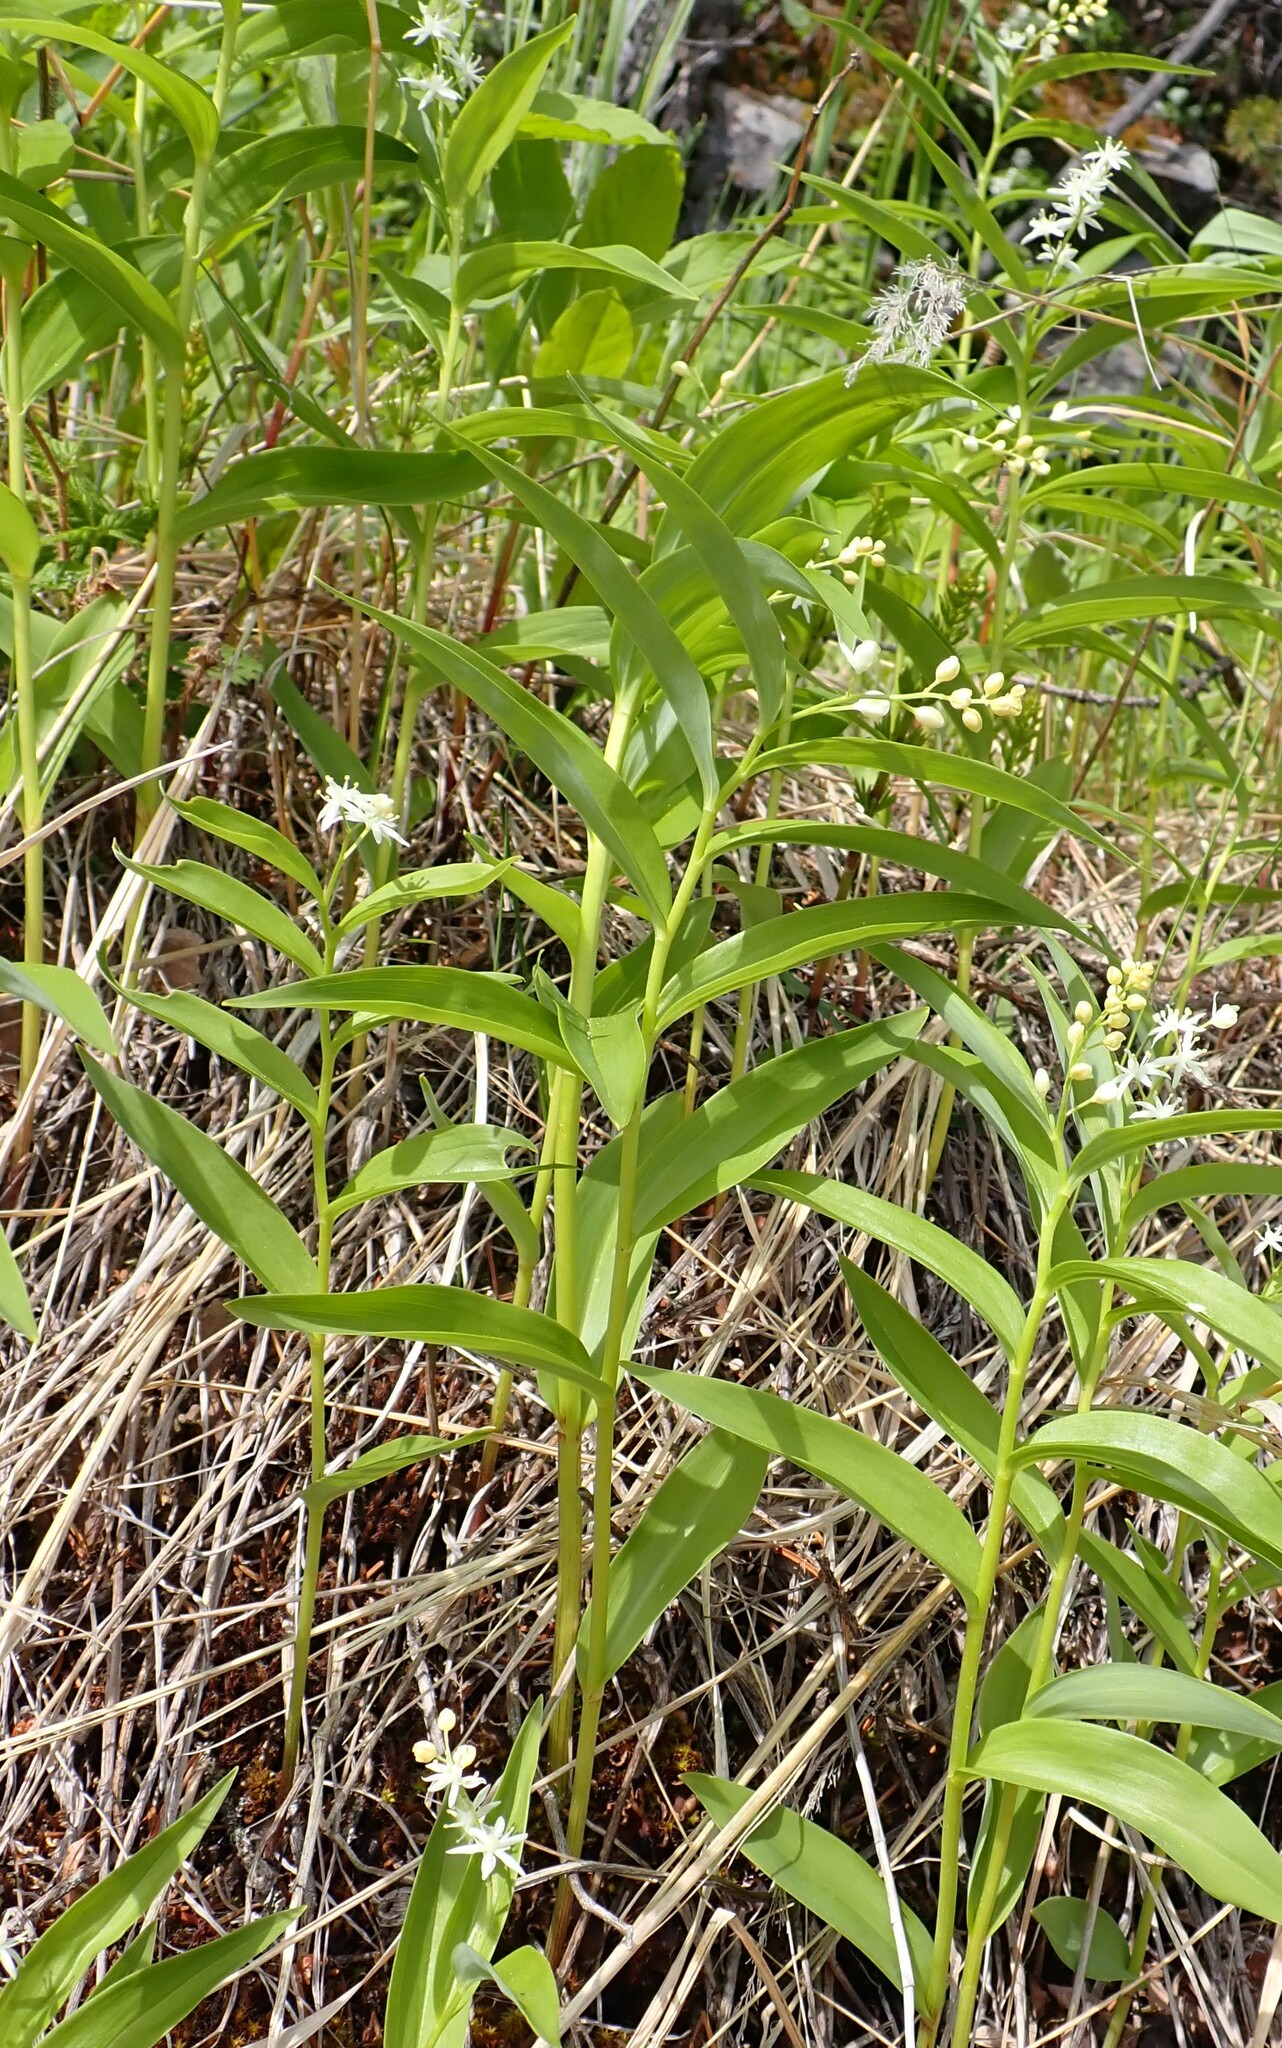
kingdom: Plantae
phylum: Tracheophyta
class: Liliopsida
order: Asparagales
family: Asparagaceae
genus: Maianthemum
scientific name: Maianthemum stellatum
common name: Little false solomon's seal
